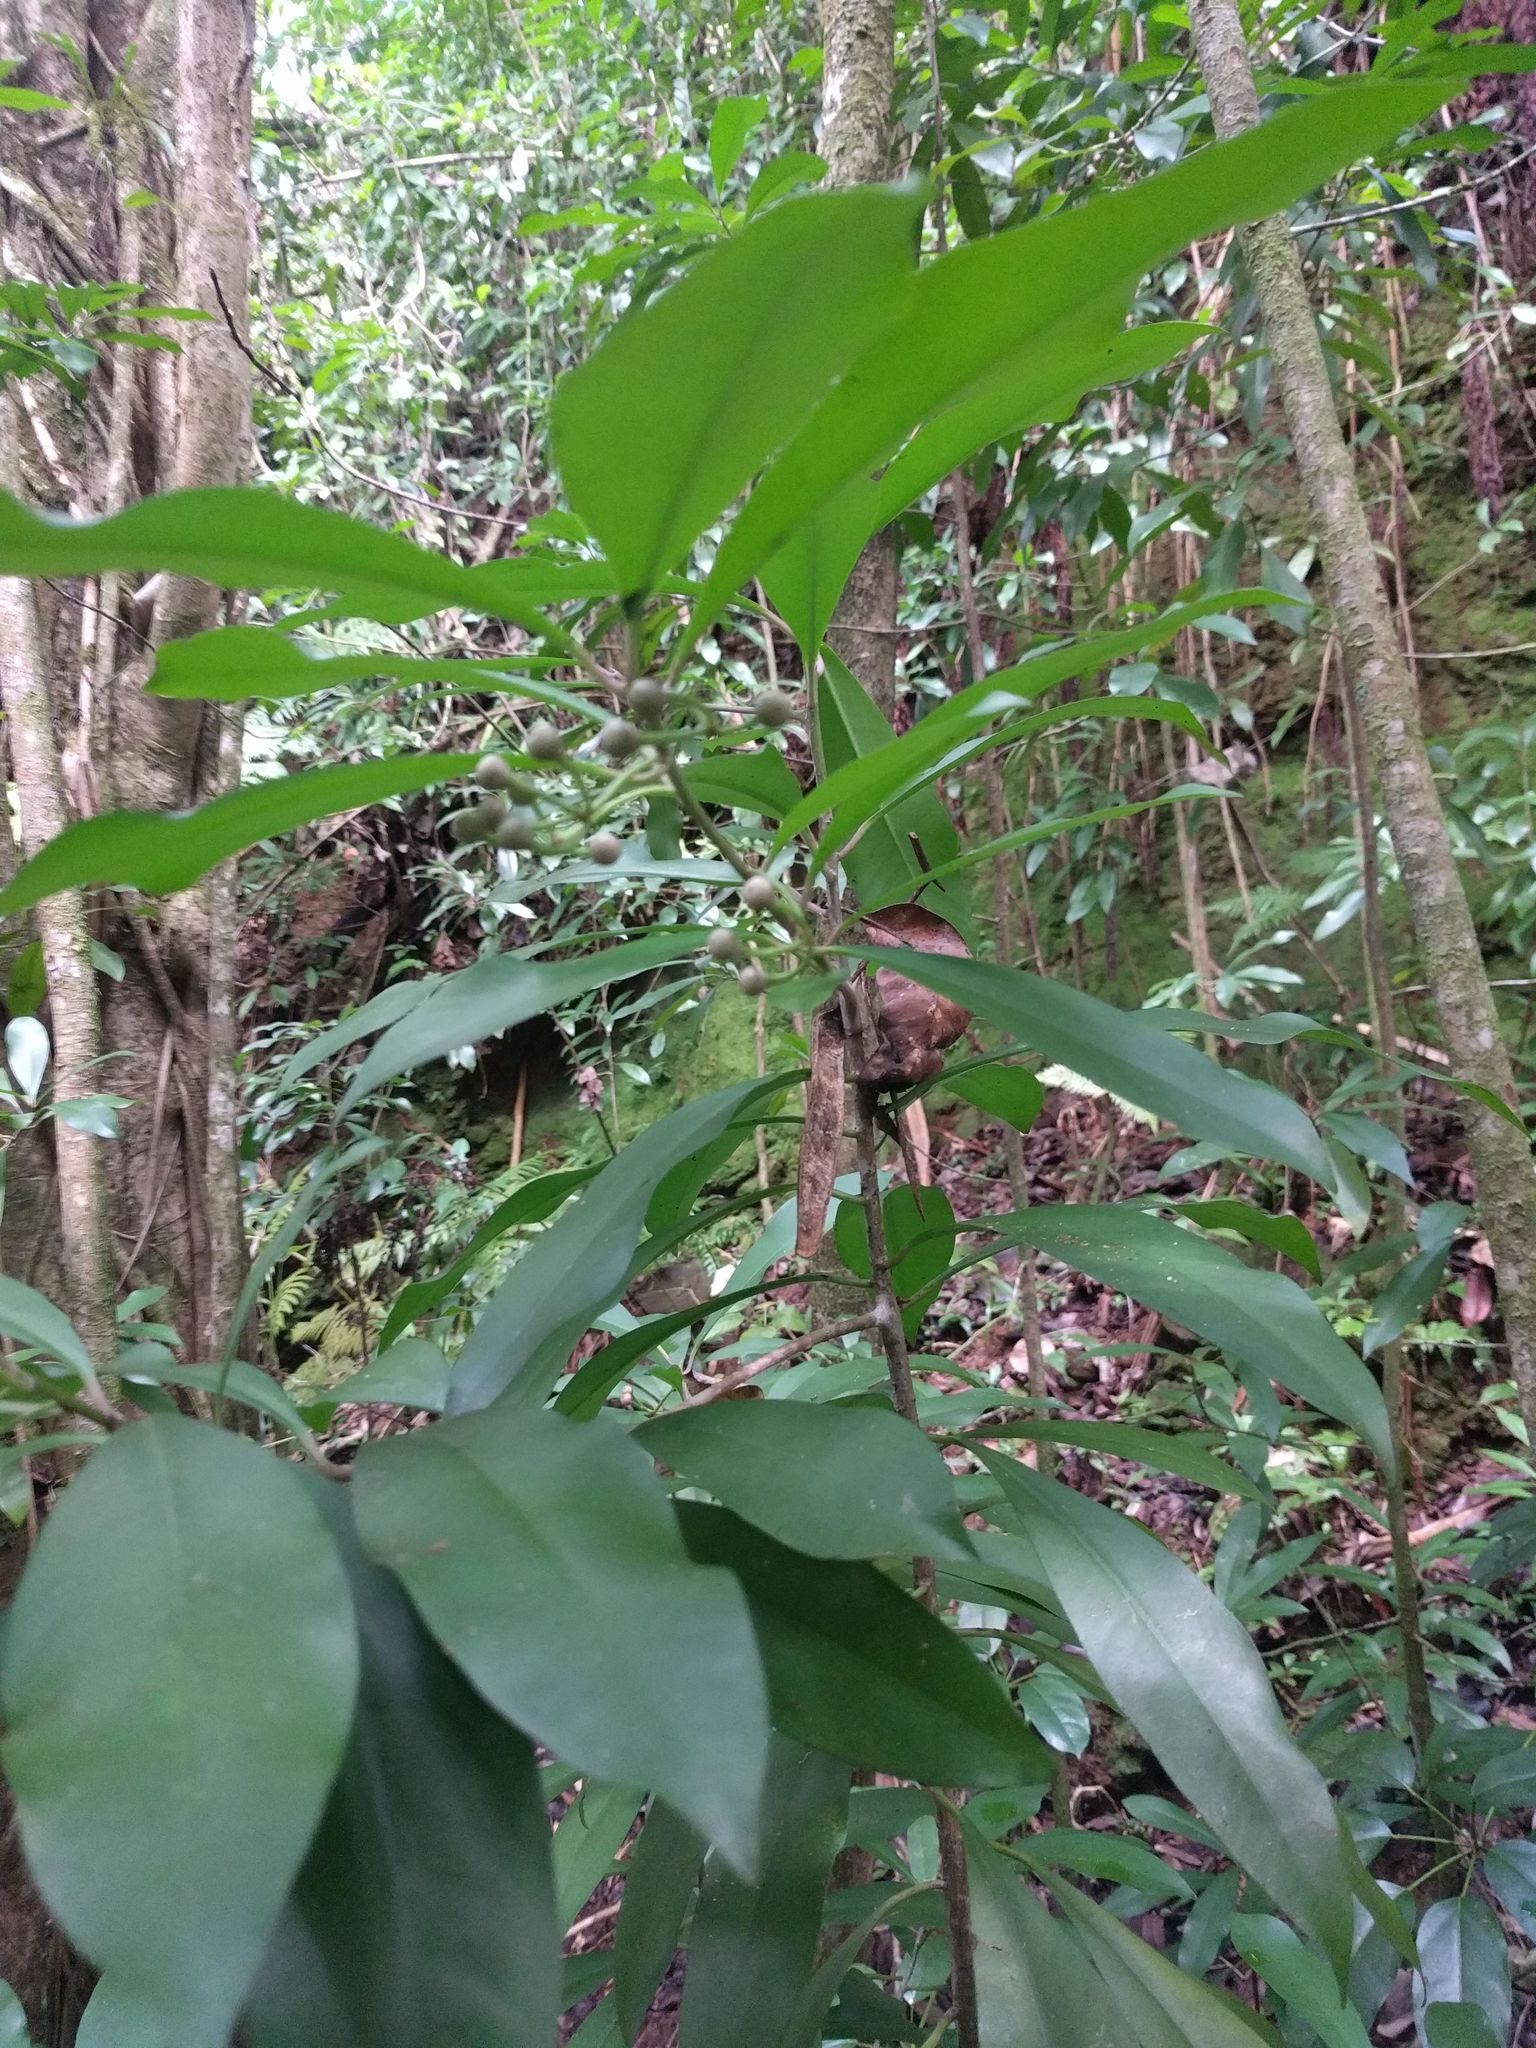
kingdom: Plantae
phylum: Tracheophyta
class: Magnoliopsida
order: Ericales
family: Primulaceae
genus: Ardisia
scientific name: Ardisia elliptica
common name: Shoebutton
